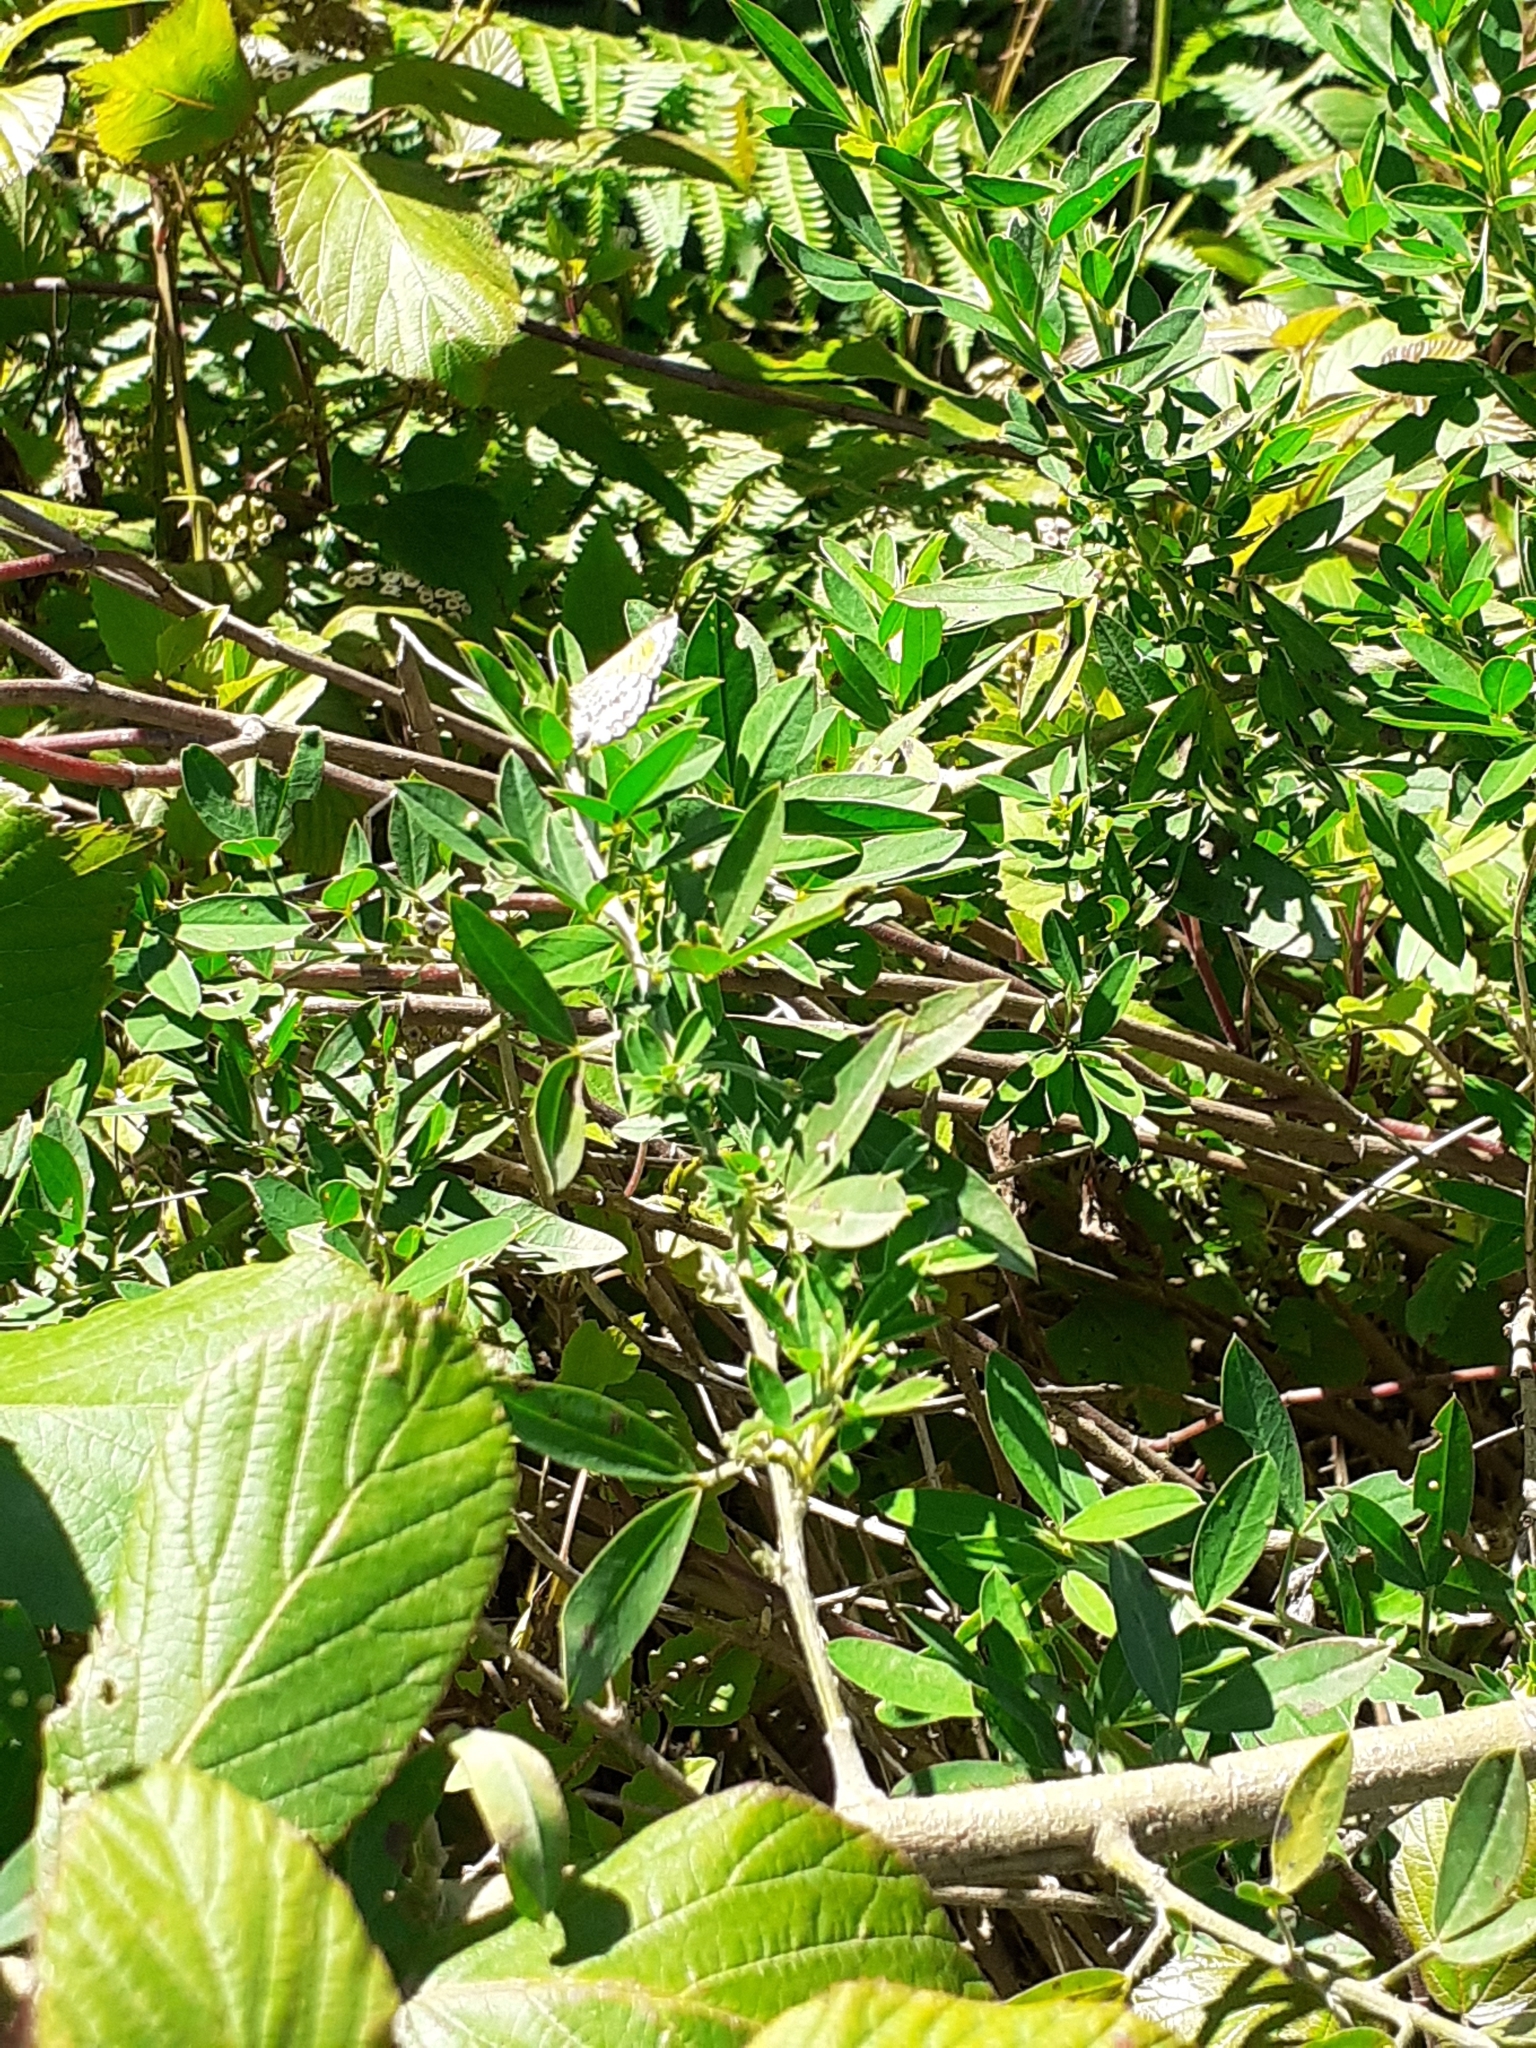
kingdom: Animalia
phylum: Arthropoda
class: Insecta
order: Lepidoptera
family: Lycaenidae
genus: Cyclyrius
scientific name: Cyclyrius webbianus
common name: Canary blue
